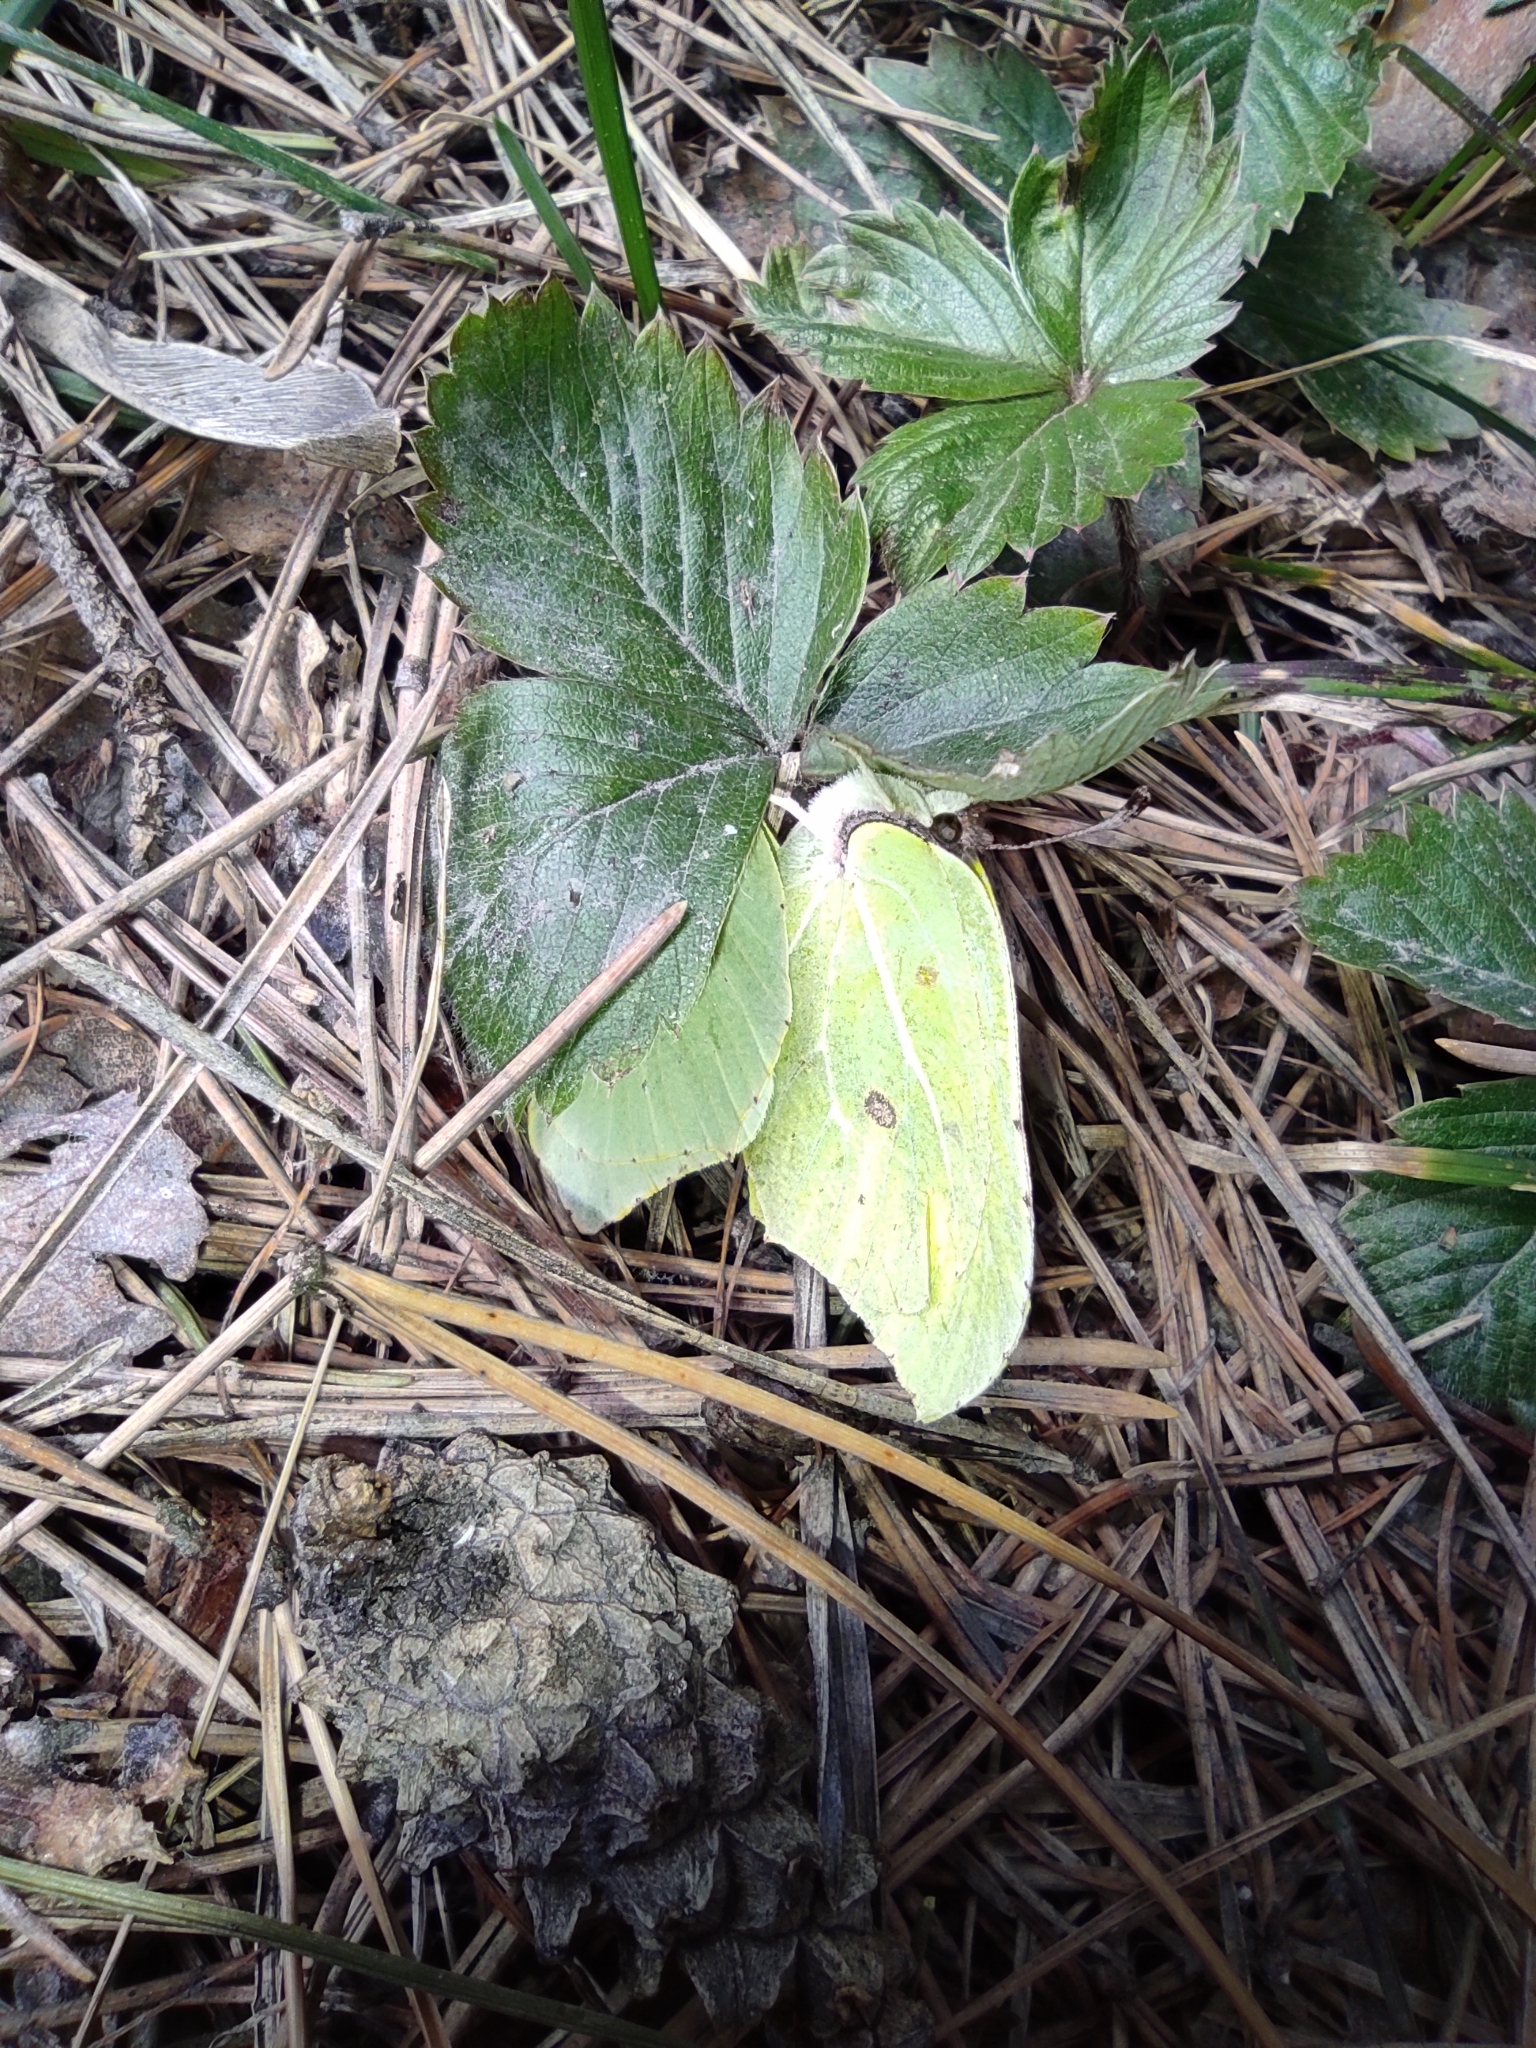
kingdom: Animalia
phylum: Arthropoda
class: Insecta
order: Lepidoptera
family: Pieridae
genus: Gonepteryx
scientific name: Gonepteryx rhamni
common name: Brimstone
